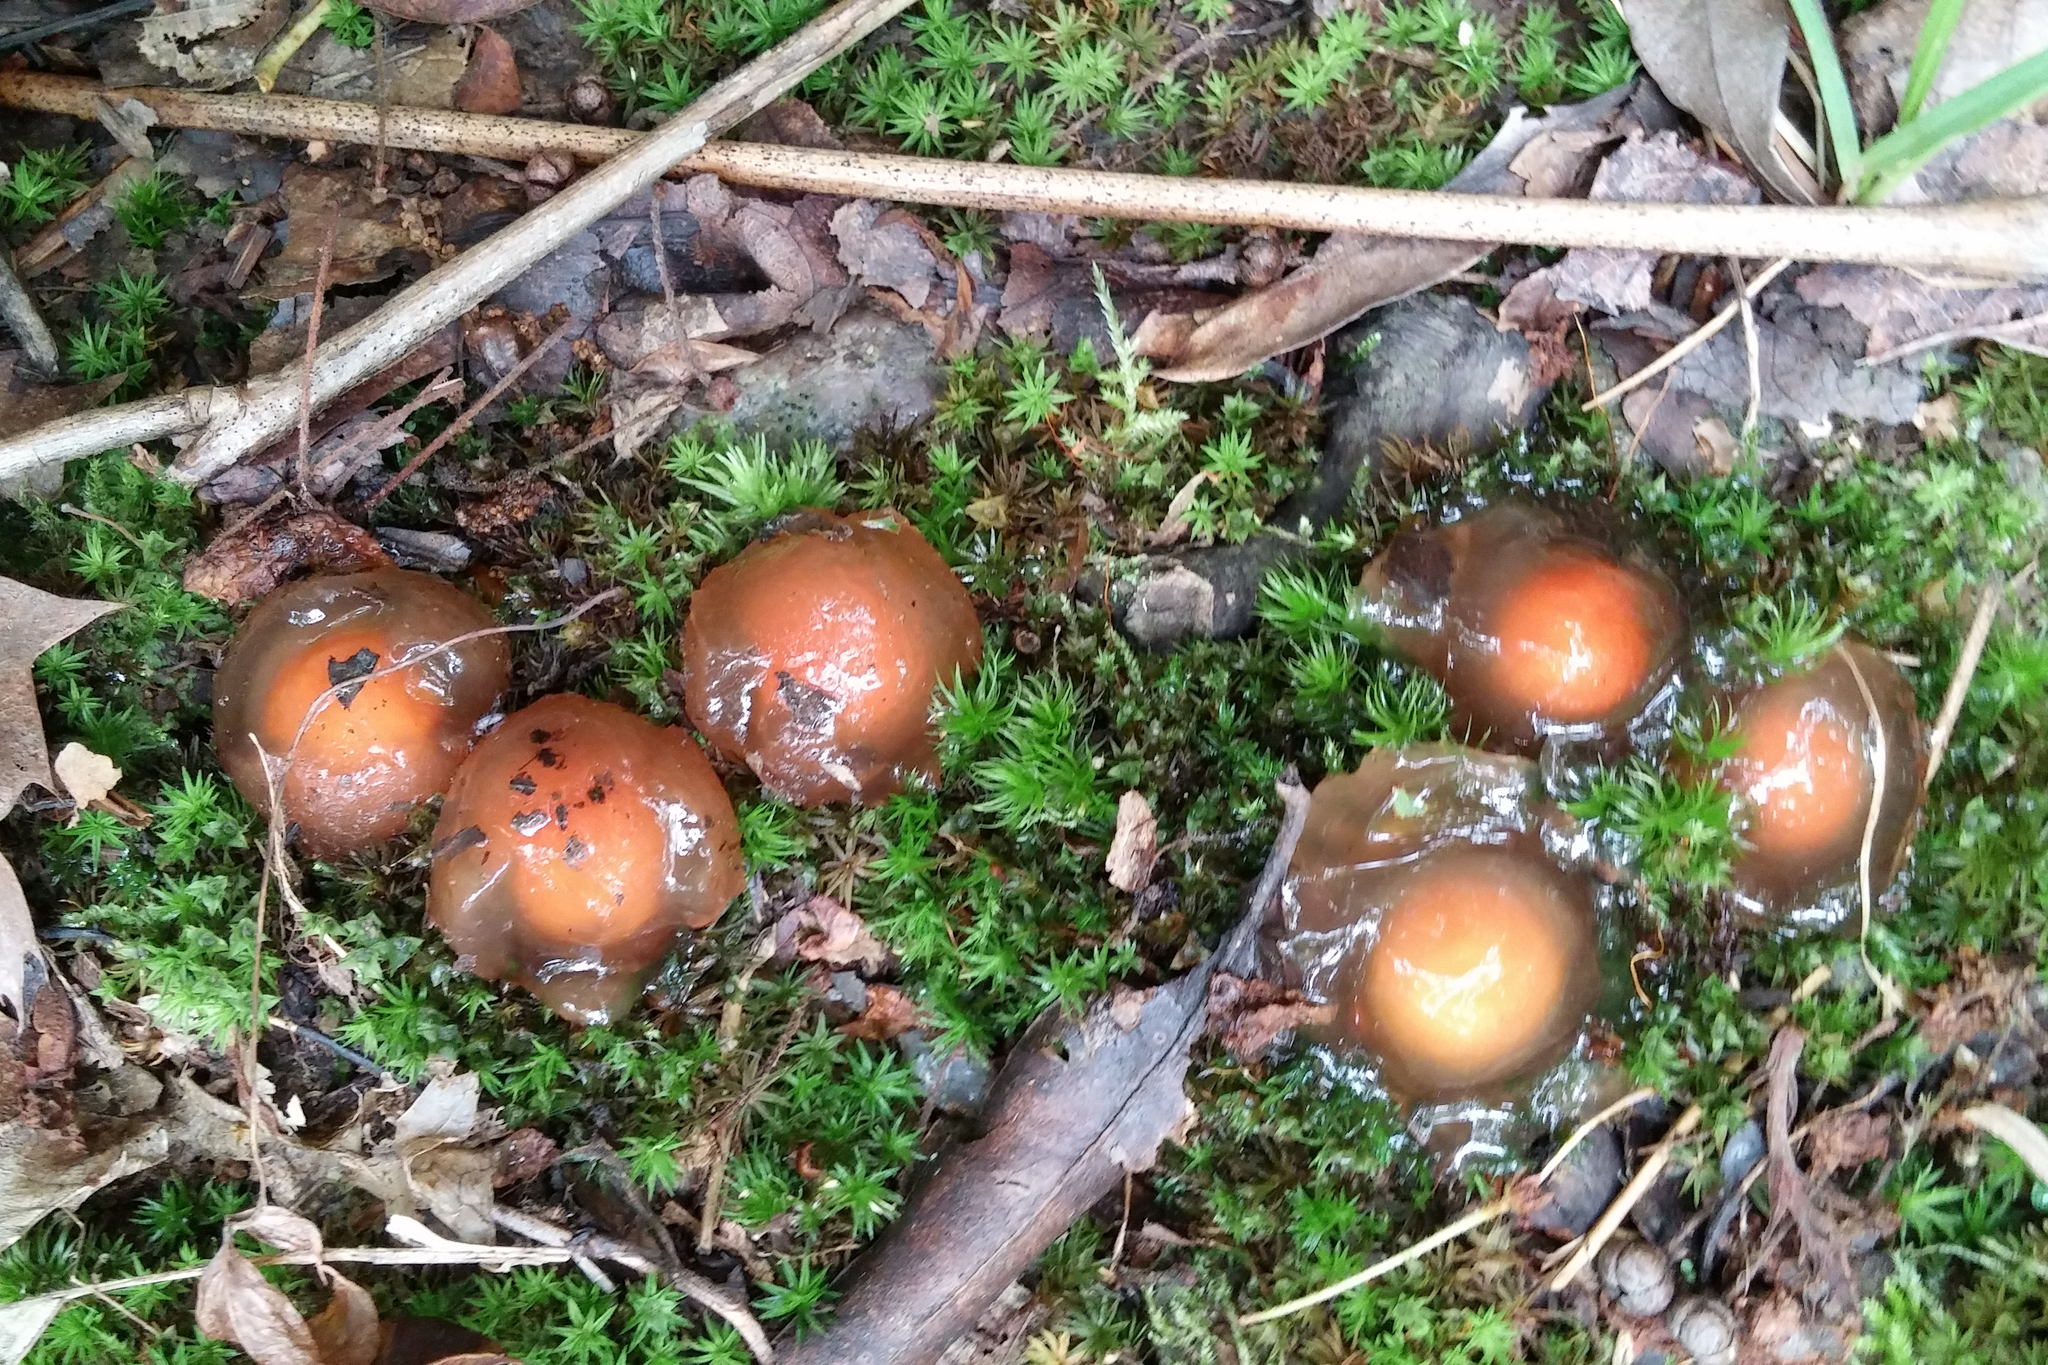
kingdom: Fungi
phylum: Basidiomycota
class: Agaricomycetes
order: Boletales
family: Calostomataceae
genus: Calostoma
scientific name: Calostoma cinnabarinum
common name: Stalked puffball-in-aspic
